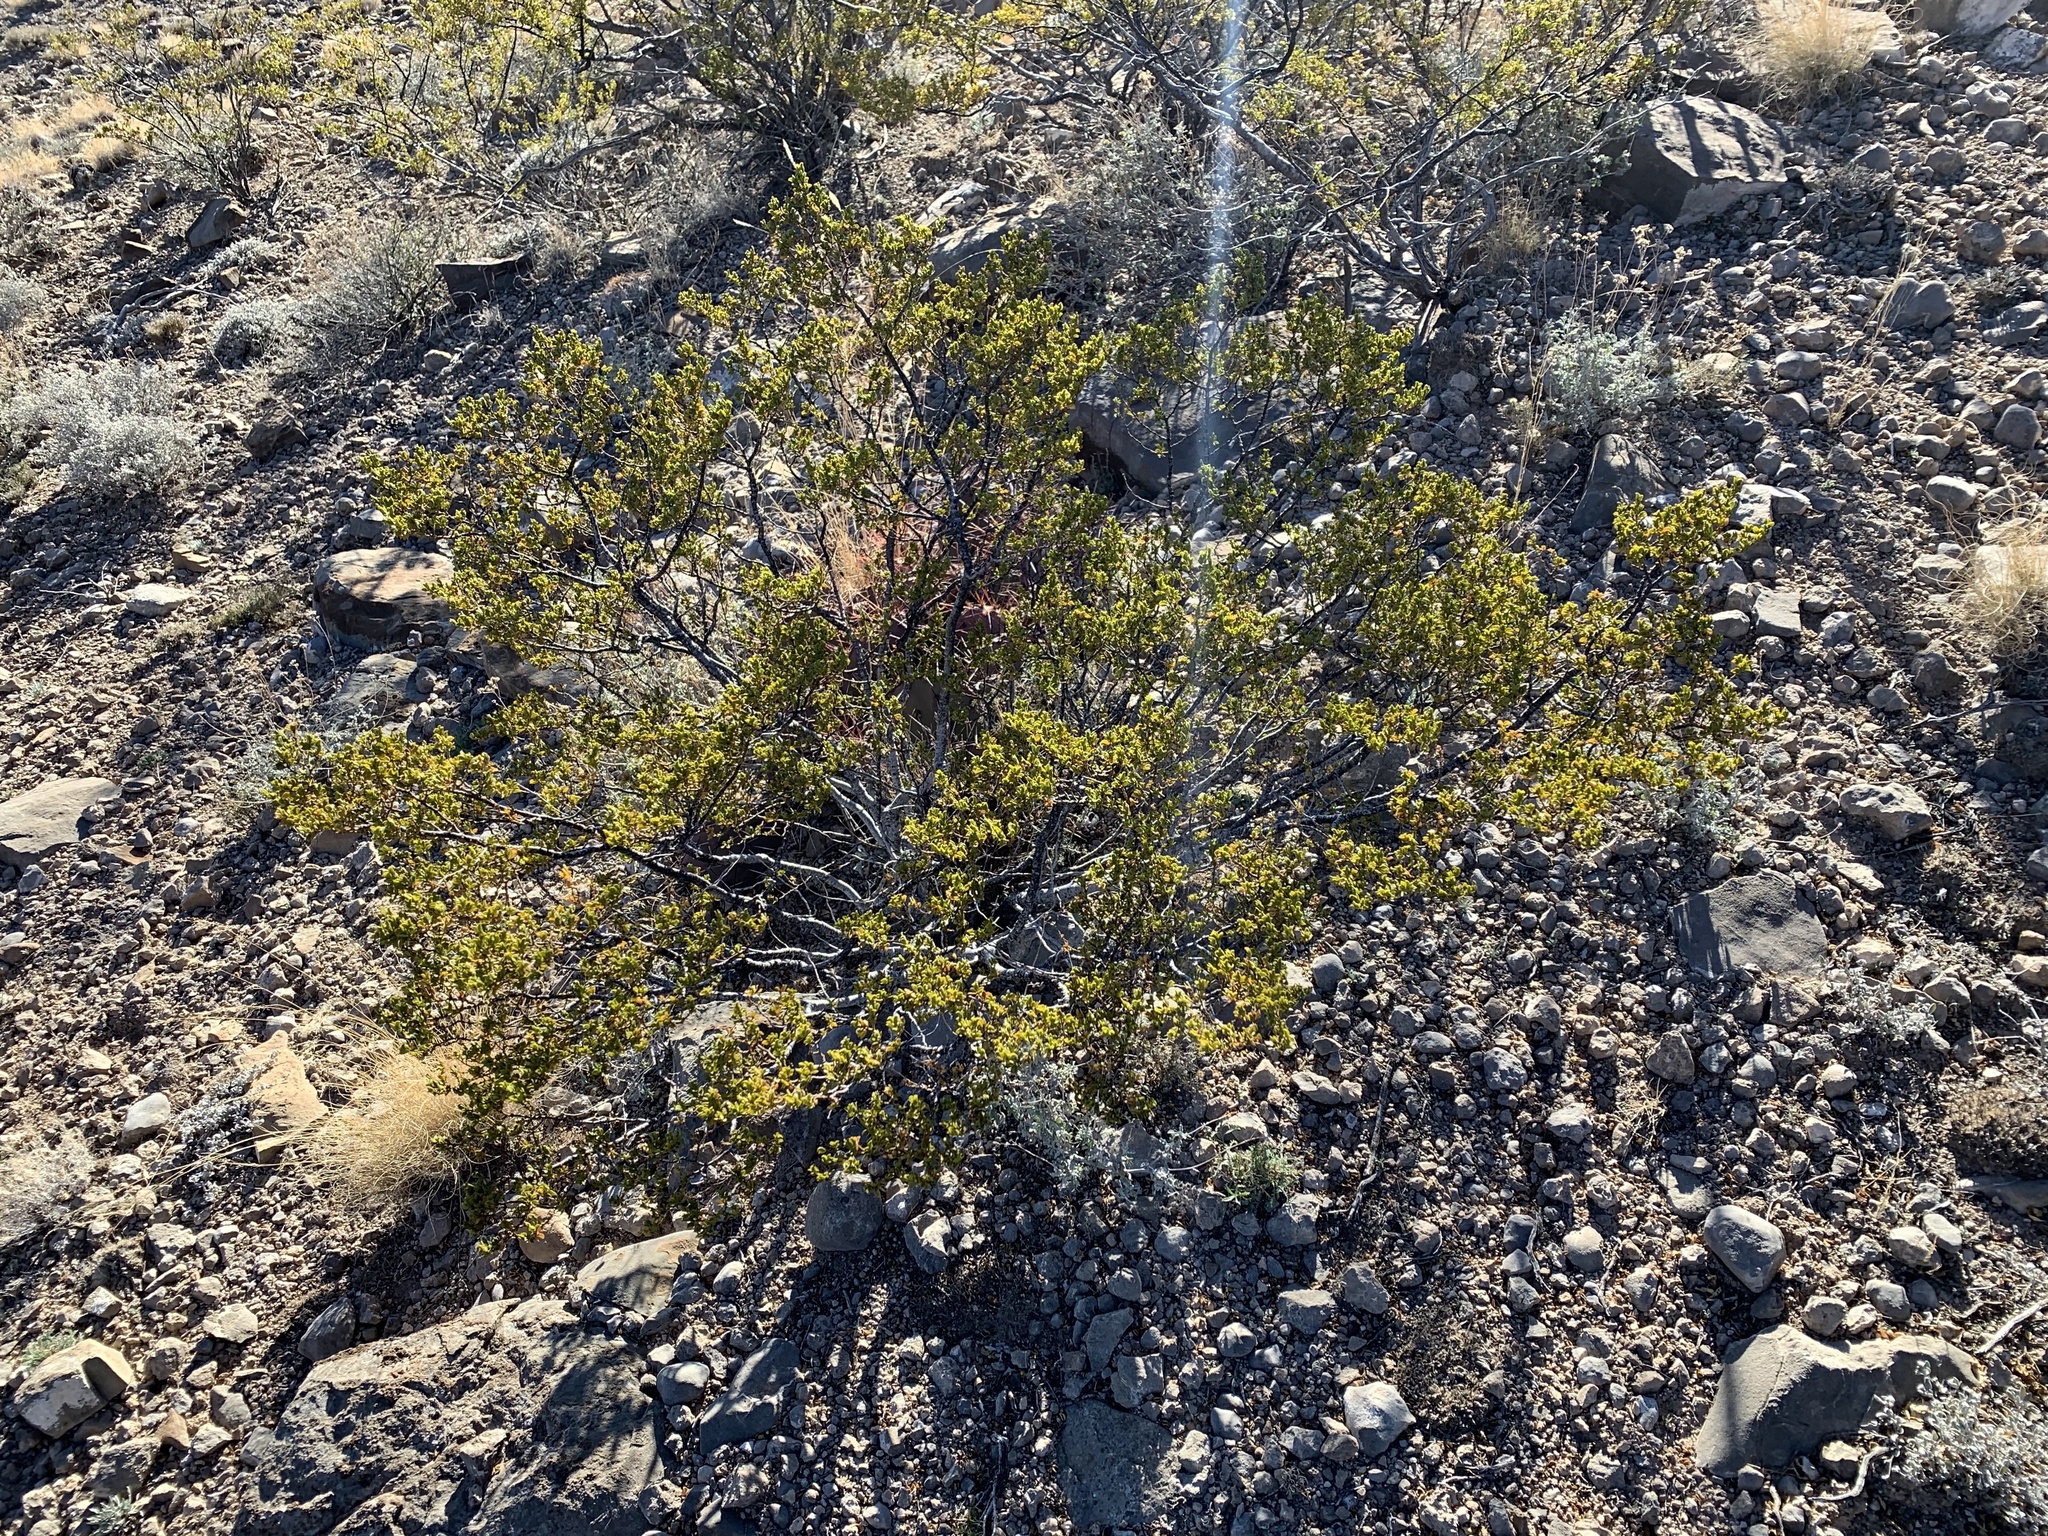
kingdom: Plantae
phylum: Tracheophyta
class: Magnoliopsida
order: Zygophyllales
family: Zygophyllaceae
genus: Larrea
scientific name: Larrea tridentata
